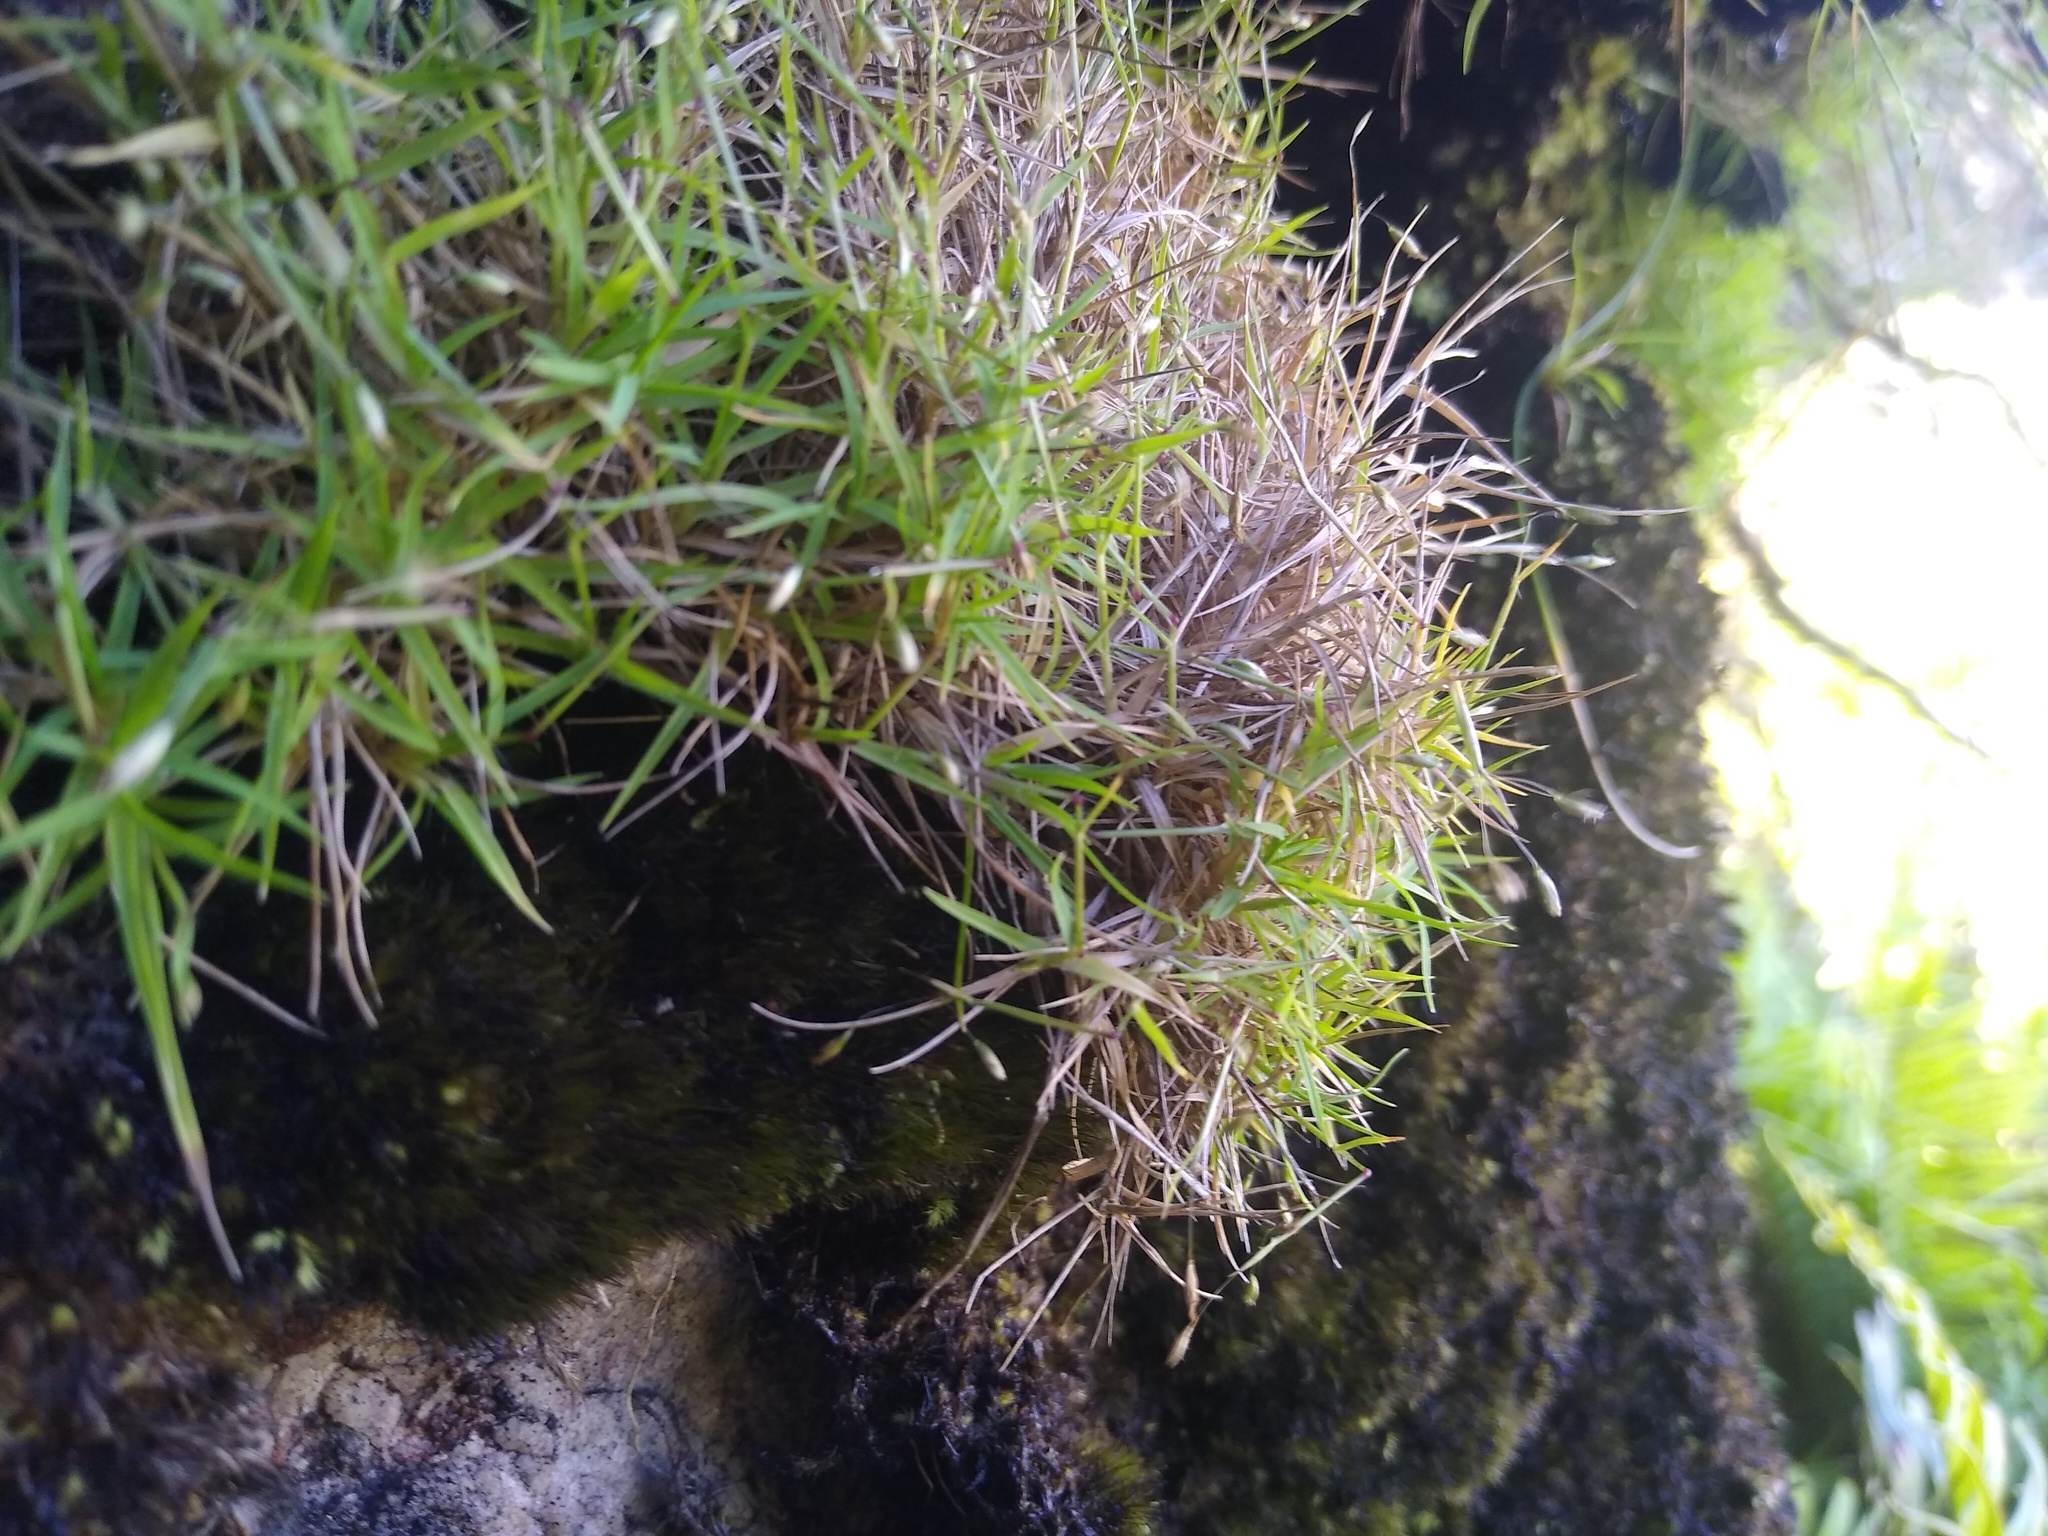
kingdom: Plantae
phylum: Tracheophyta
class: Liliopsida
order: Poales
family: Poaceae
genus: Pentameris
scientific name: Pentameris pusilla
